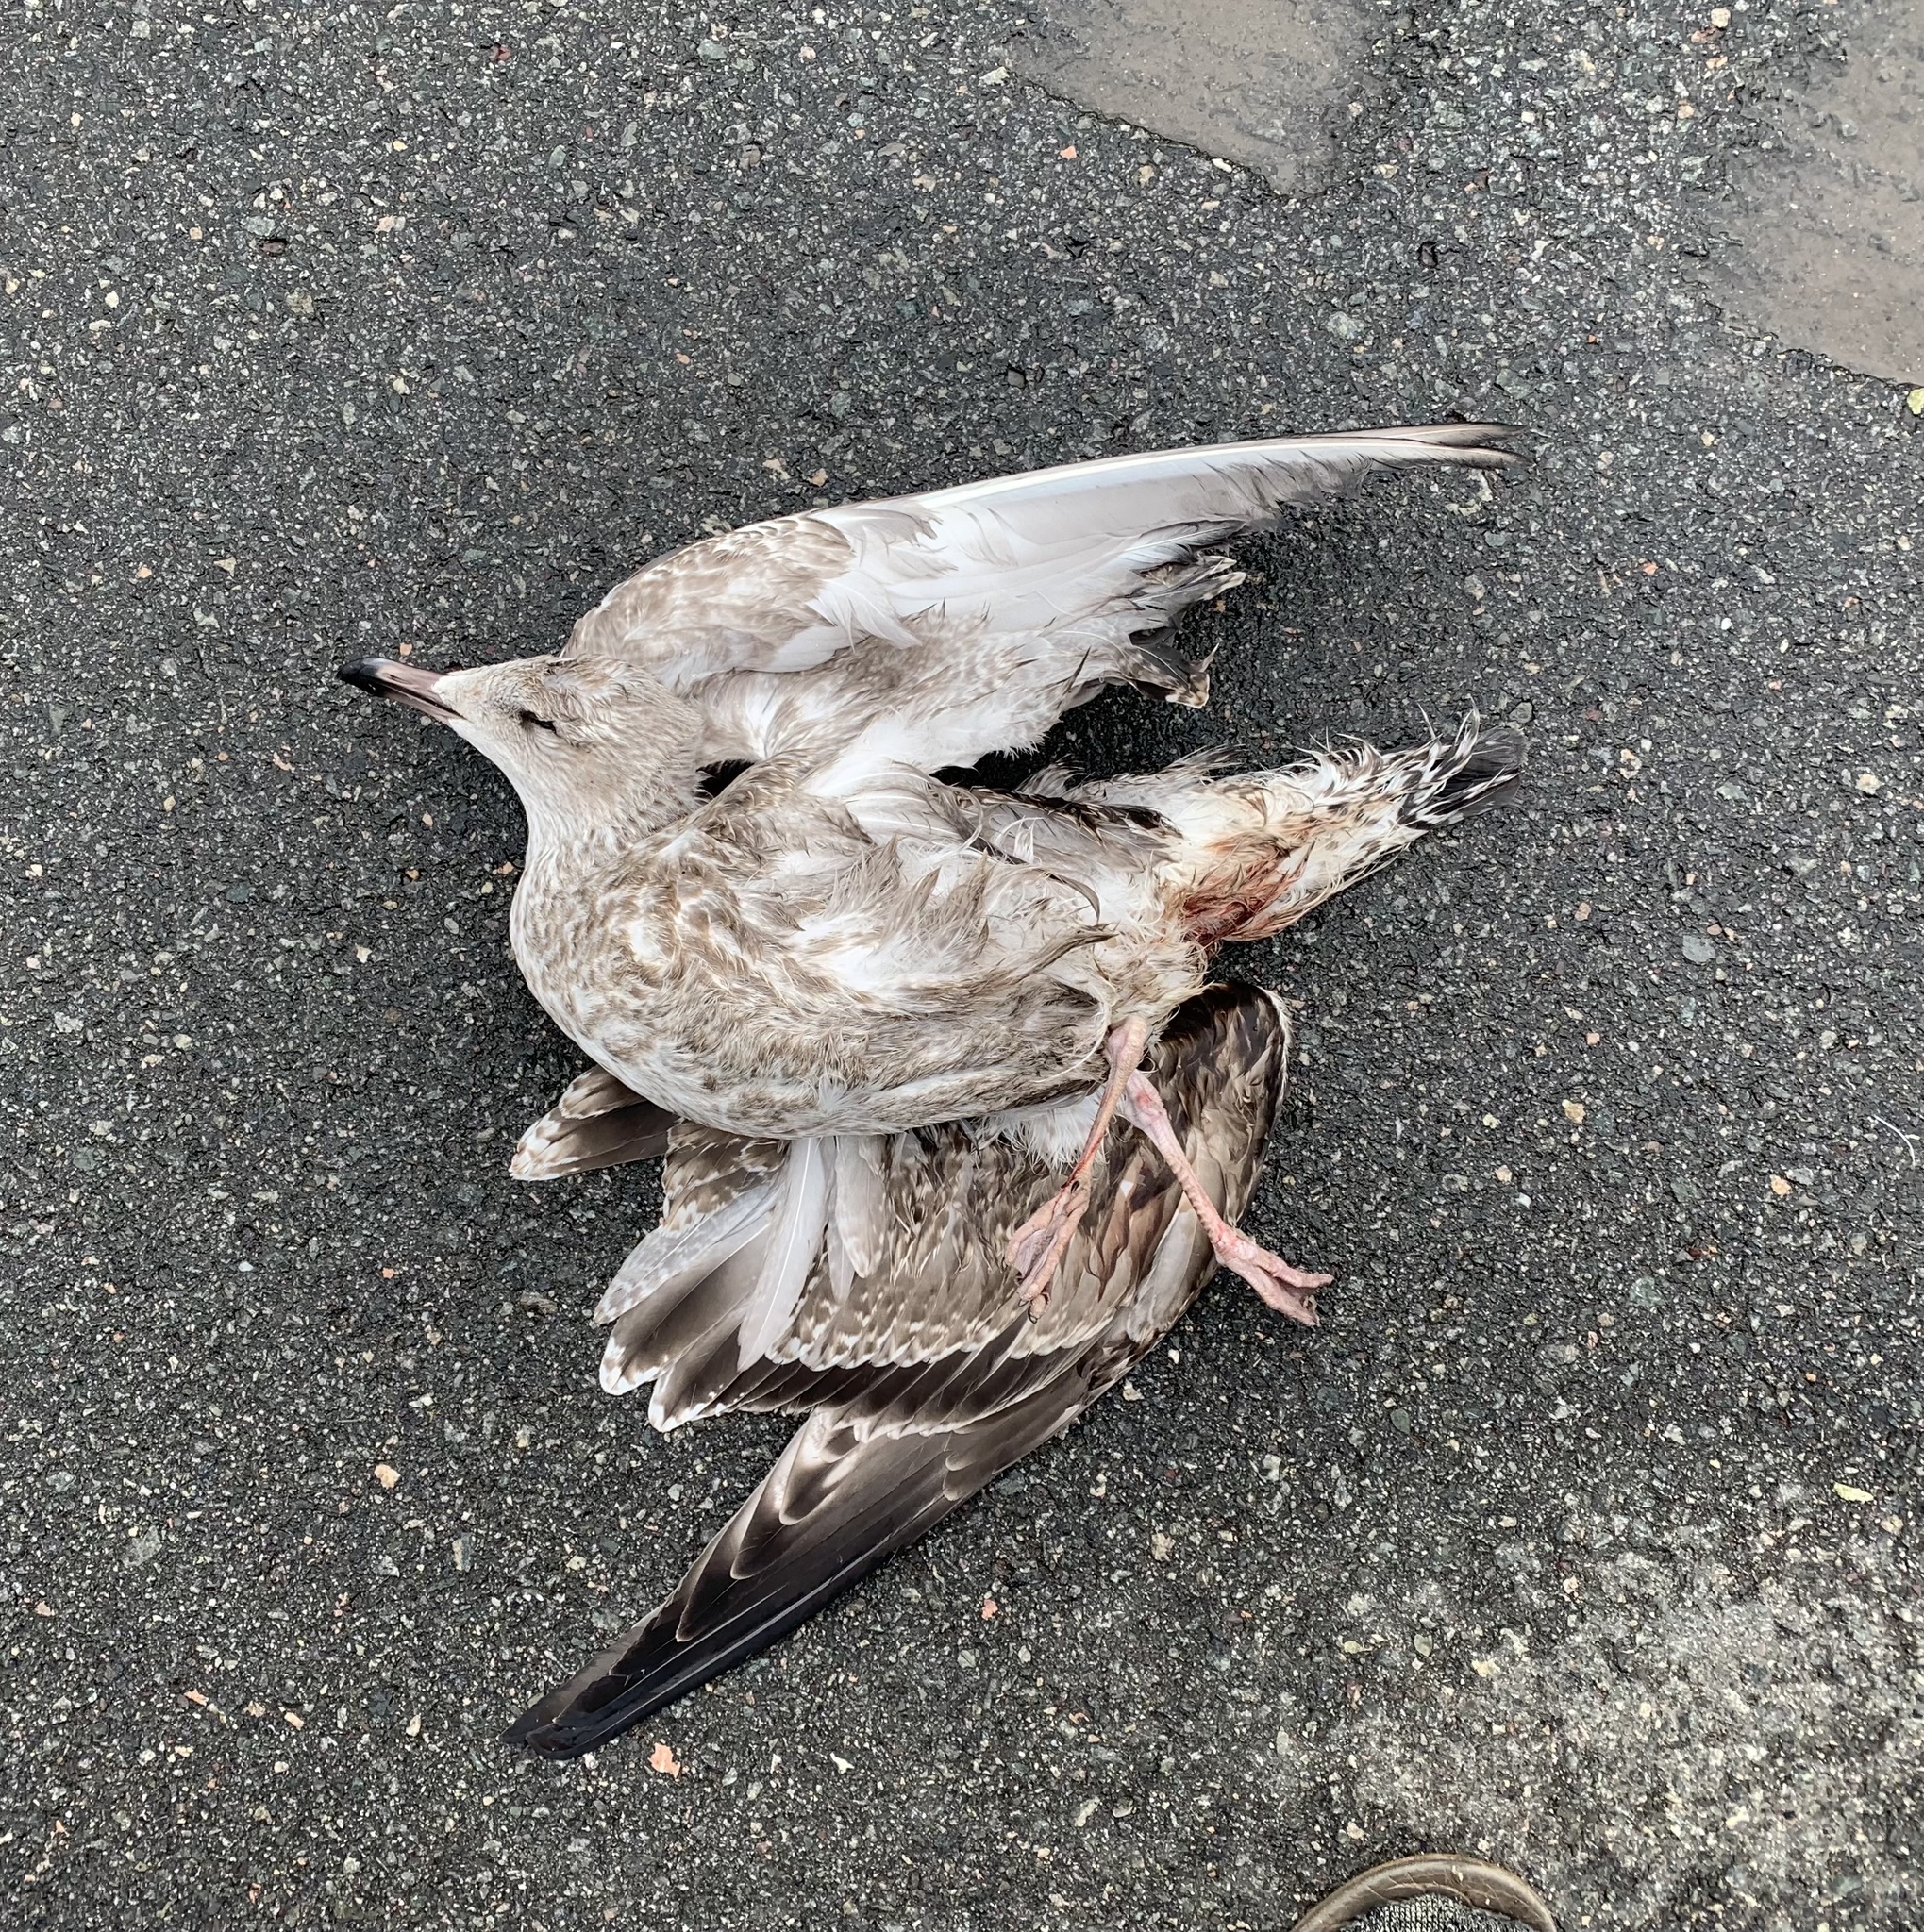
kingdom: Animalia
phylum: Chordata
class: Aves
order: Charadriiformes
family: Laridae
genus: Larus
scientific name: Larus argentatus
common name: Herring gull
